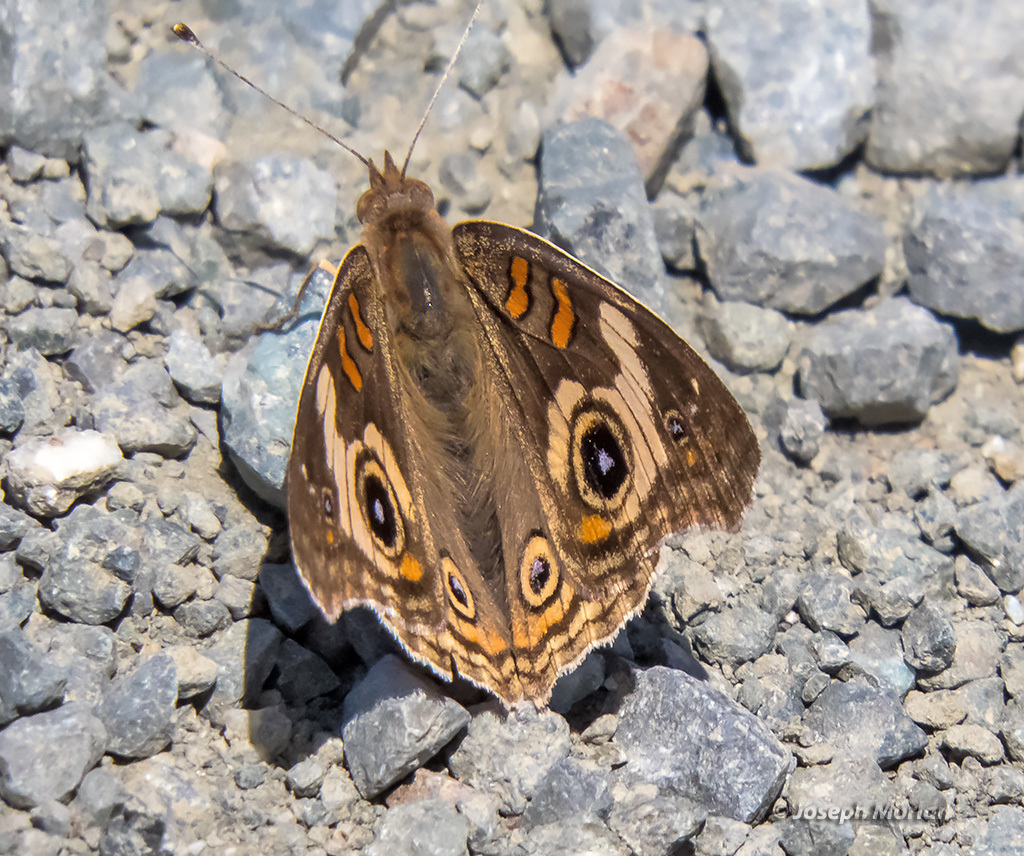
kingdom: Animalia
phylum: Arthropoda
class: Insecta
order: Lepidoptera
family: Nymphalidae
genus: Junonia
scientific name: Junonia grisea
